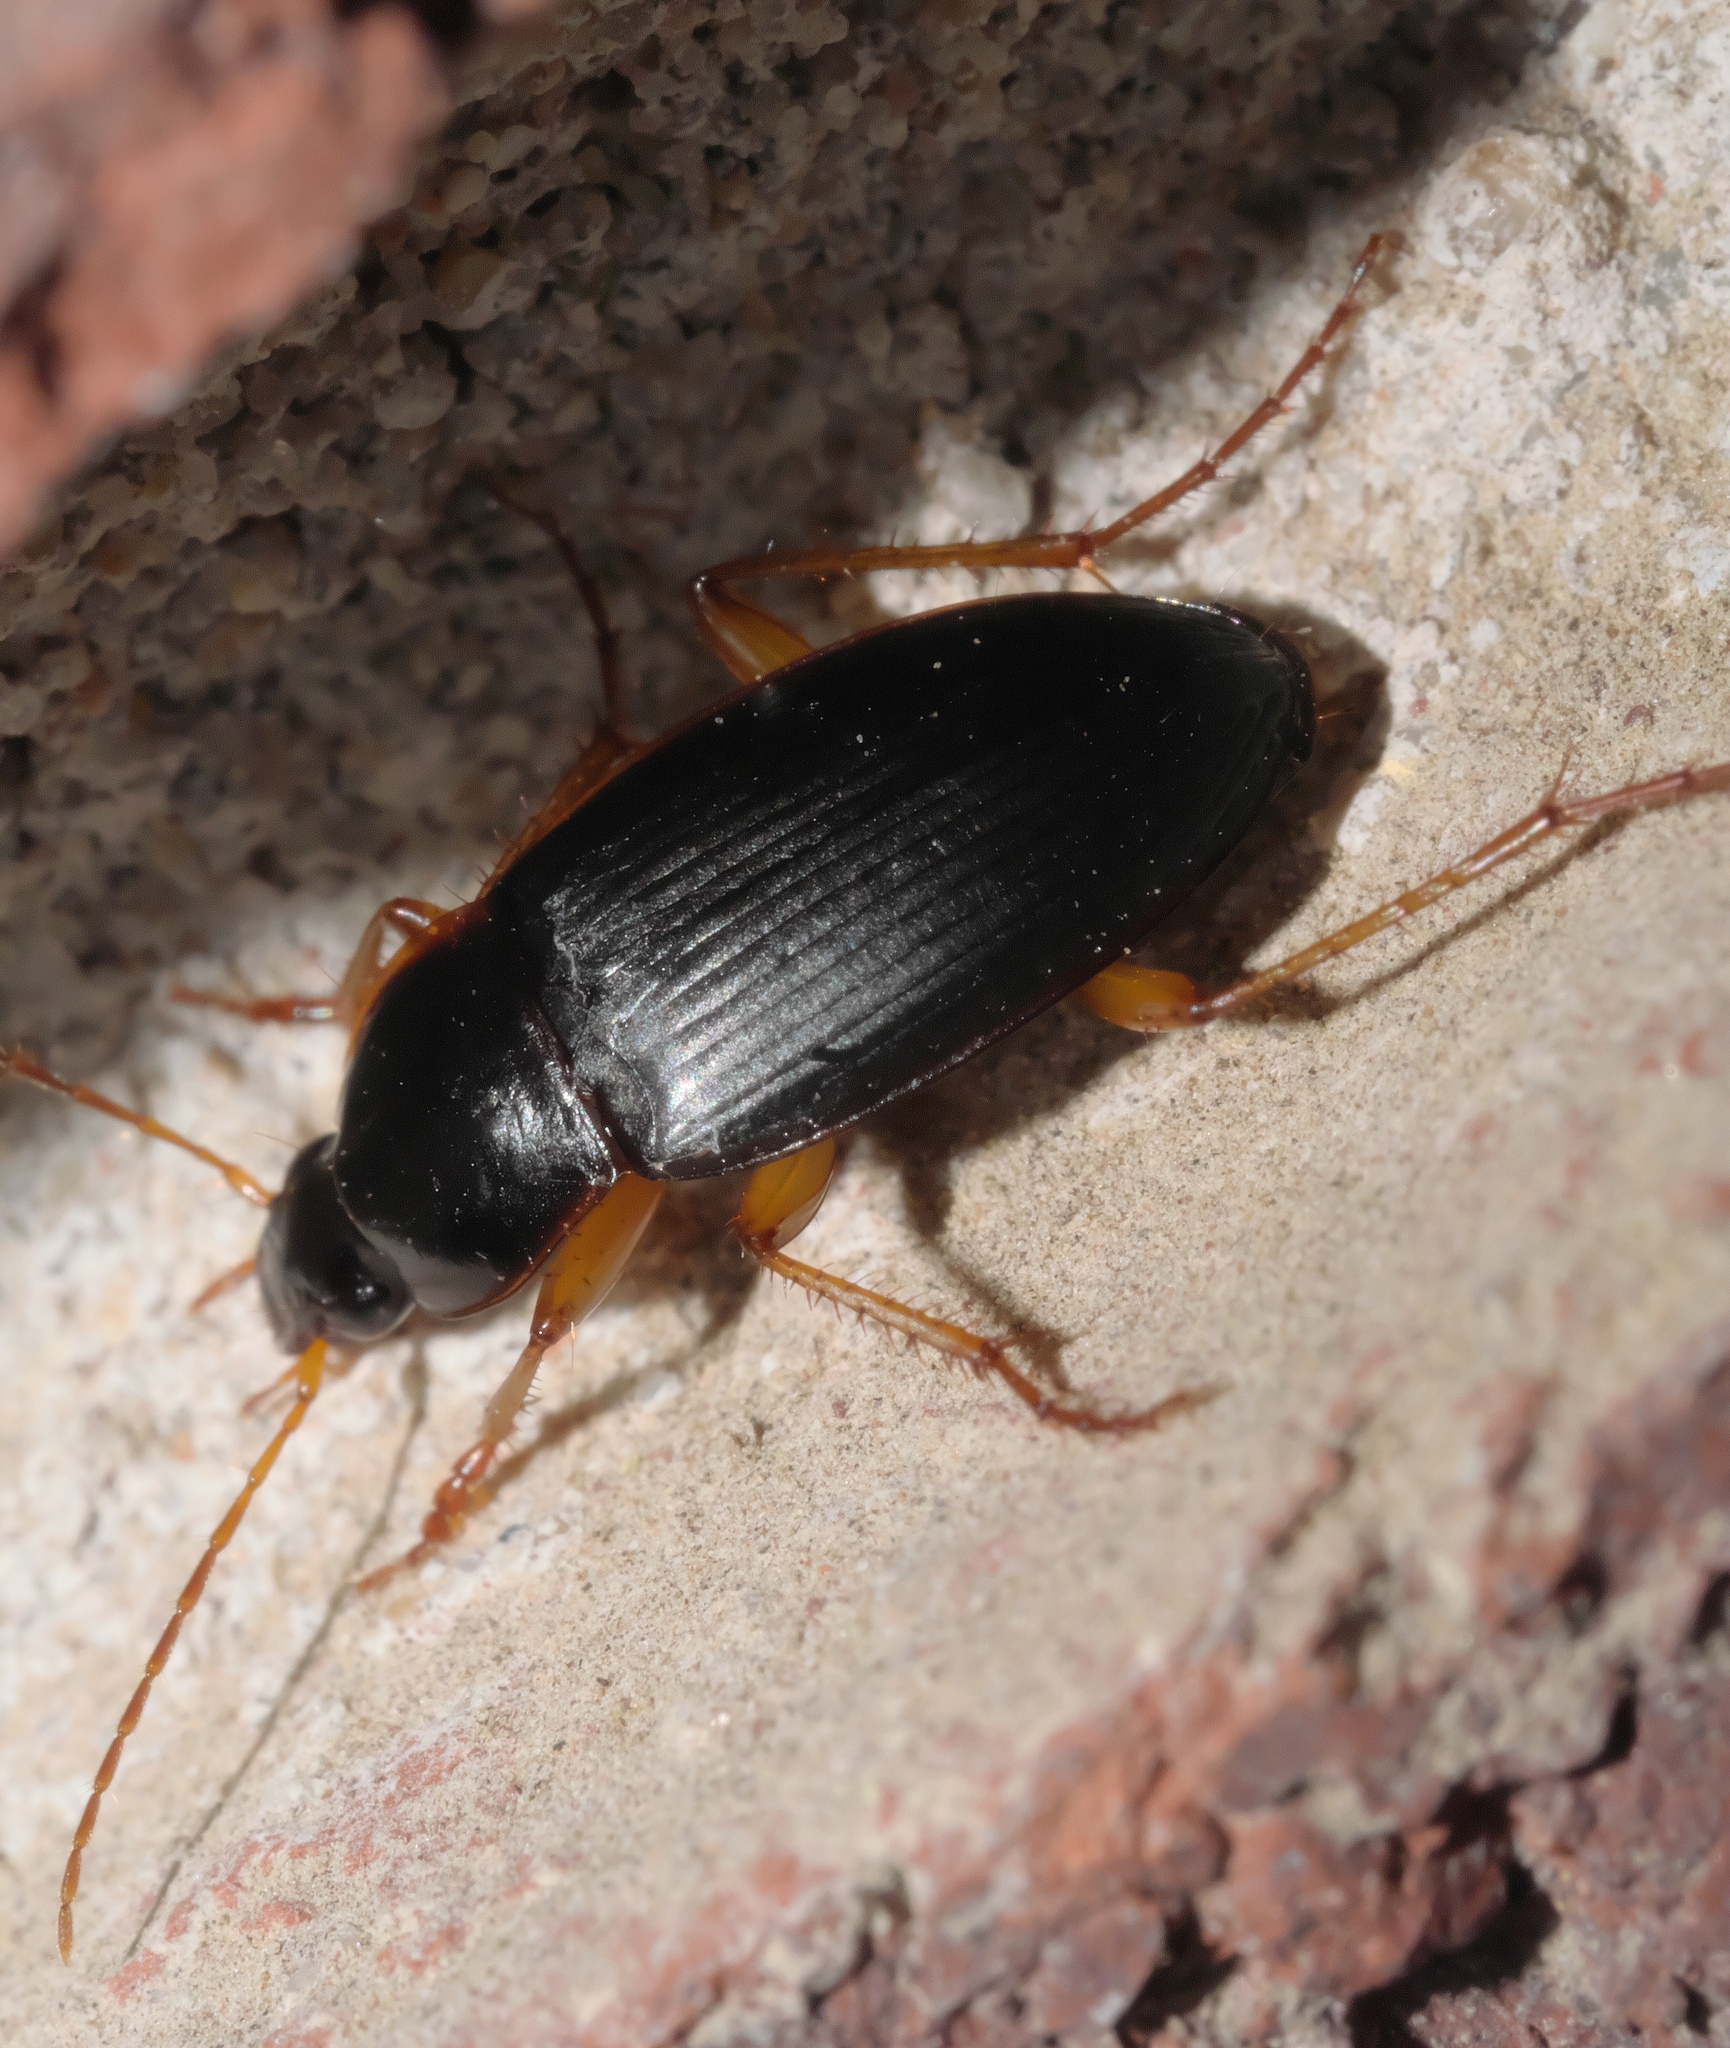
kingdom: Animalia
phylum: Arthropoda
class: Insecta
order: Coleoptera
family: Carabidae
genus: Calathus
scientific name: Calathus opaculus
